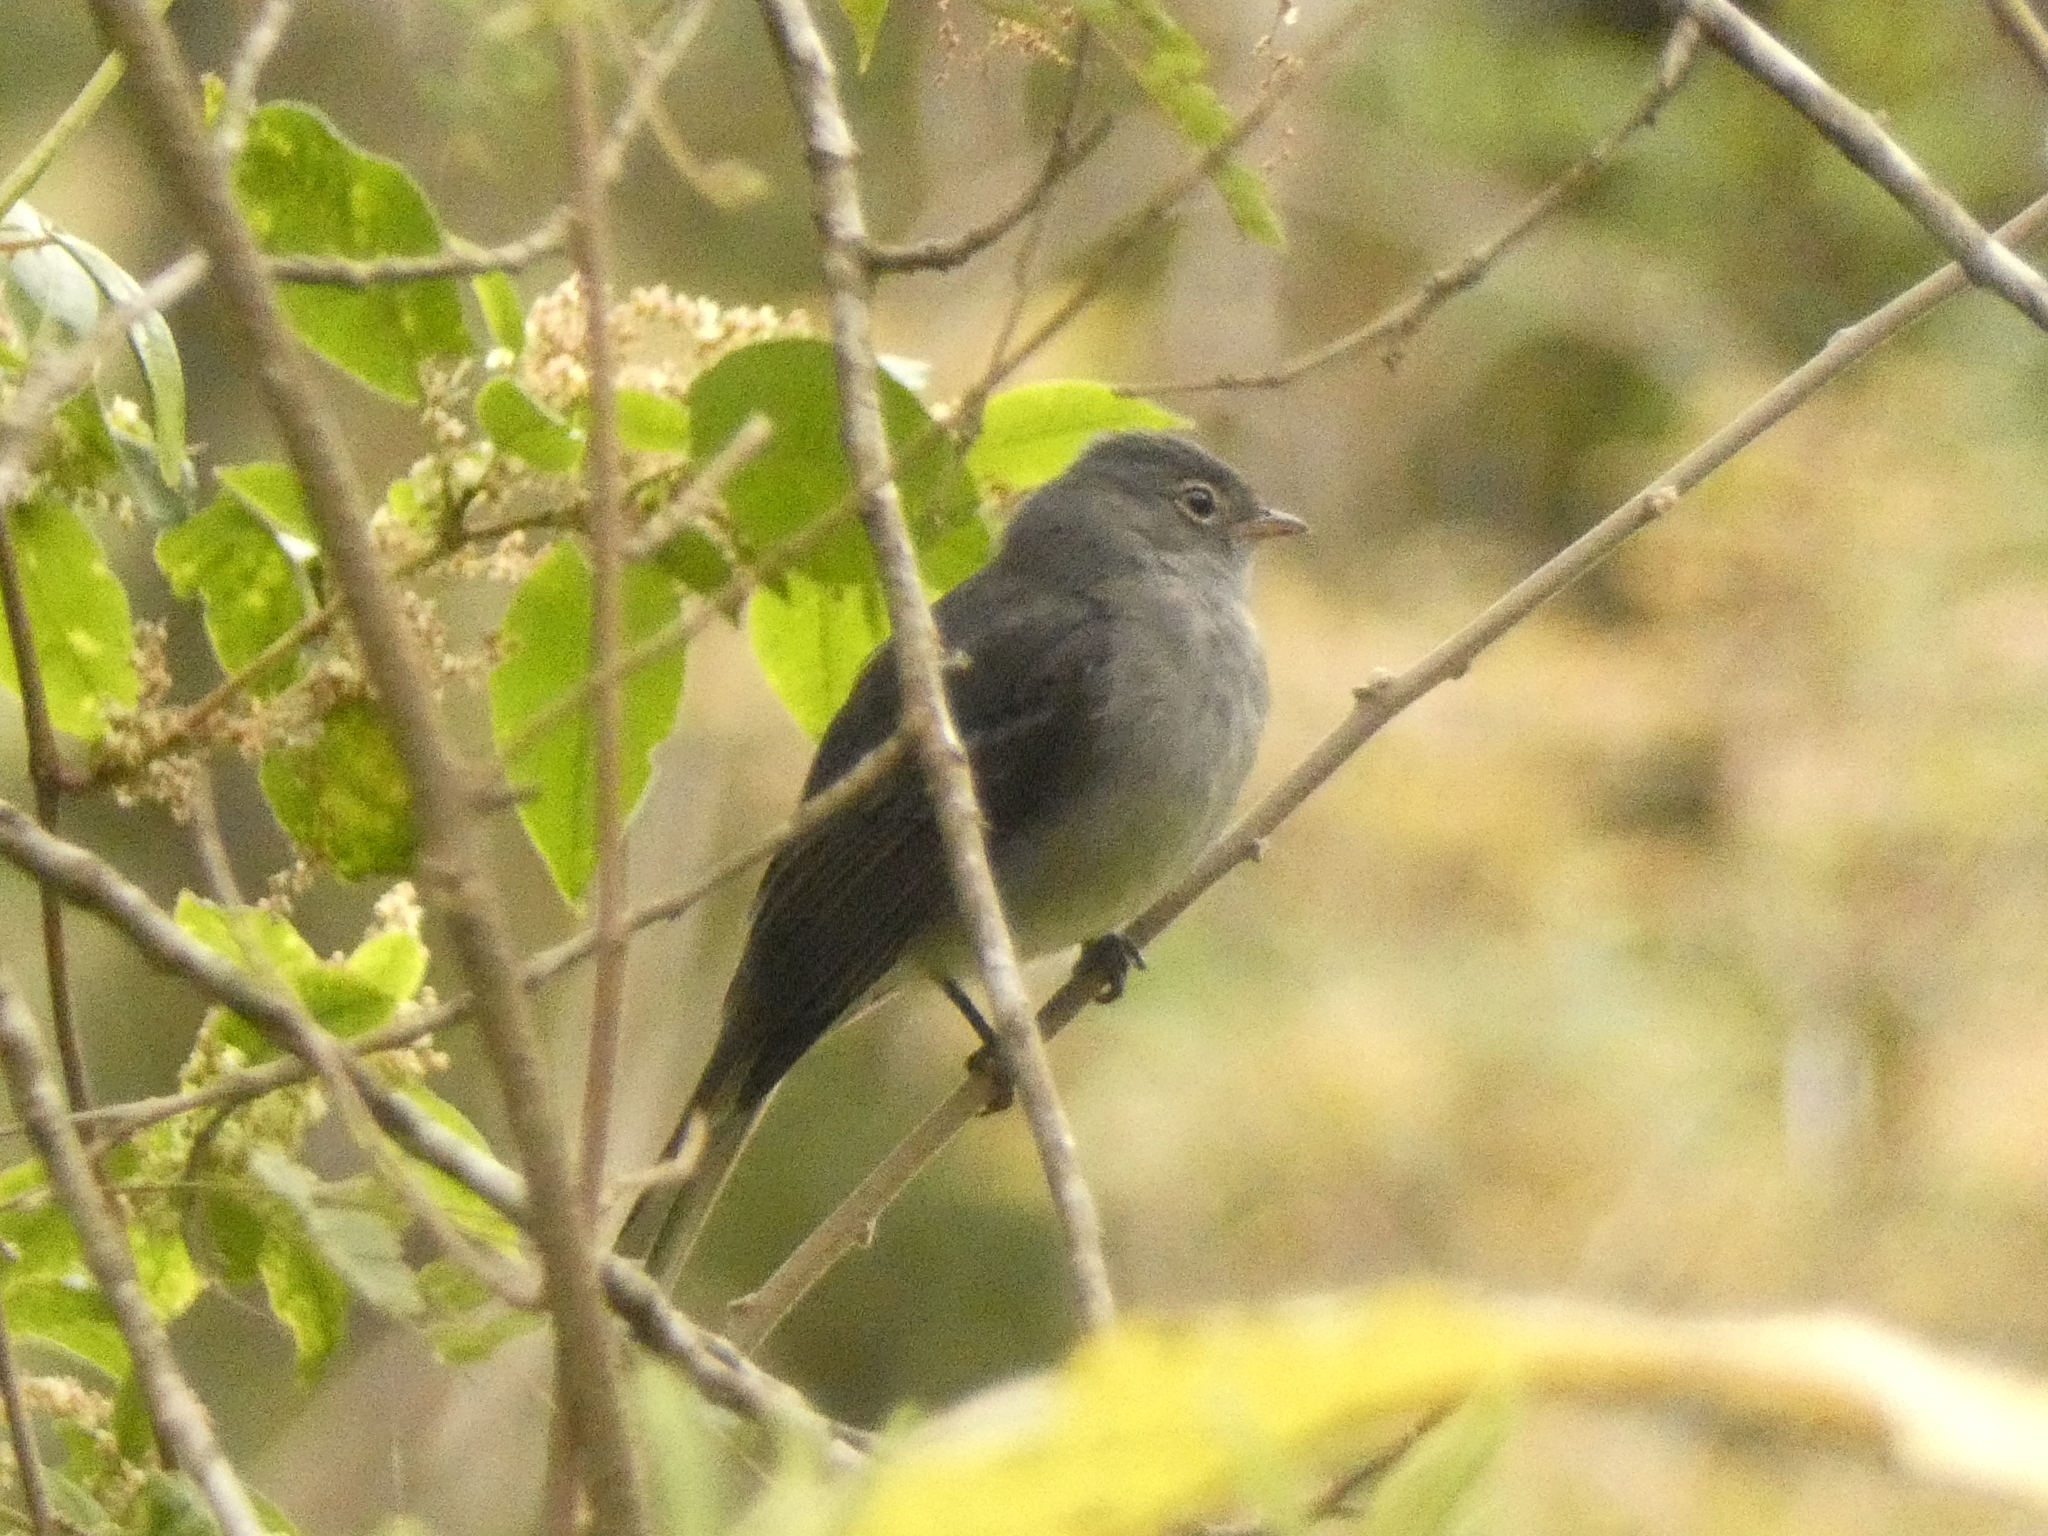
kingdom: Animalia
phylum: Chordata
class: Aves
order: Passeriformes
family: Tyrannidae
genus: Elaenia
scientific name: Elaenia strepera
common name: Slaty elaenia
